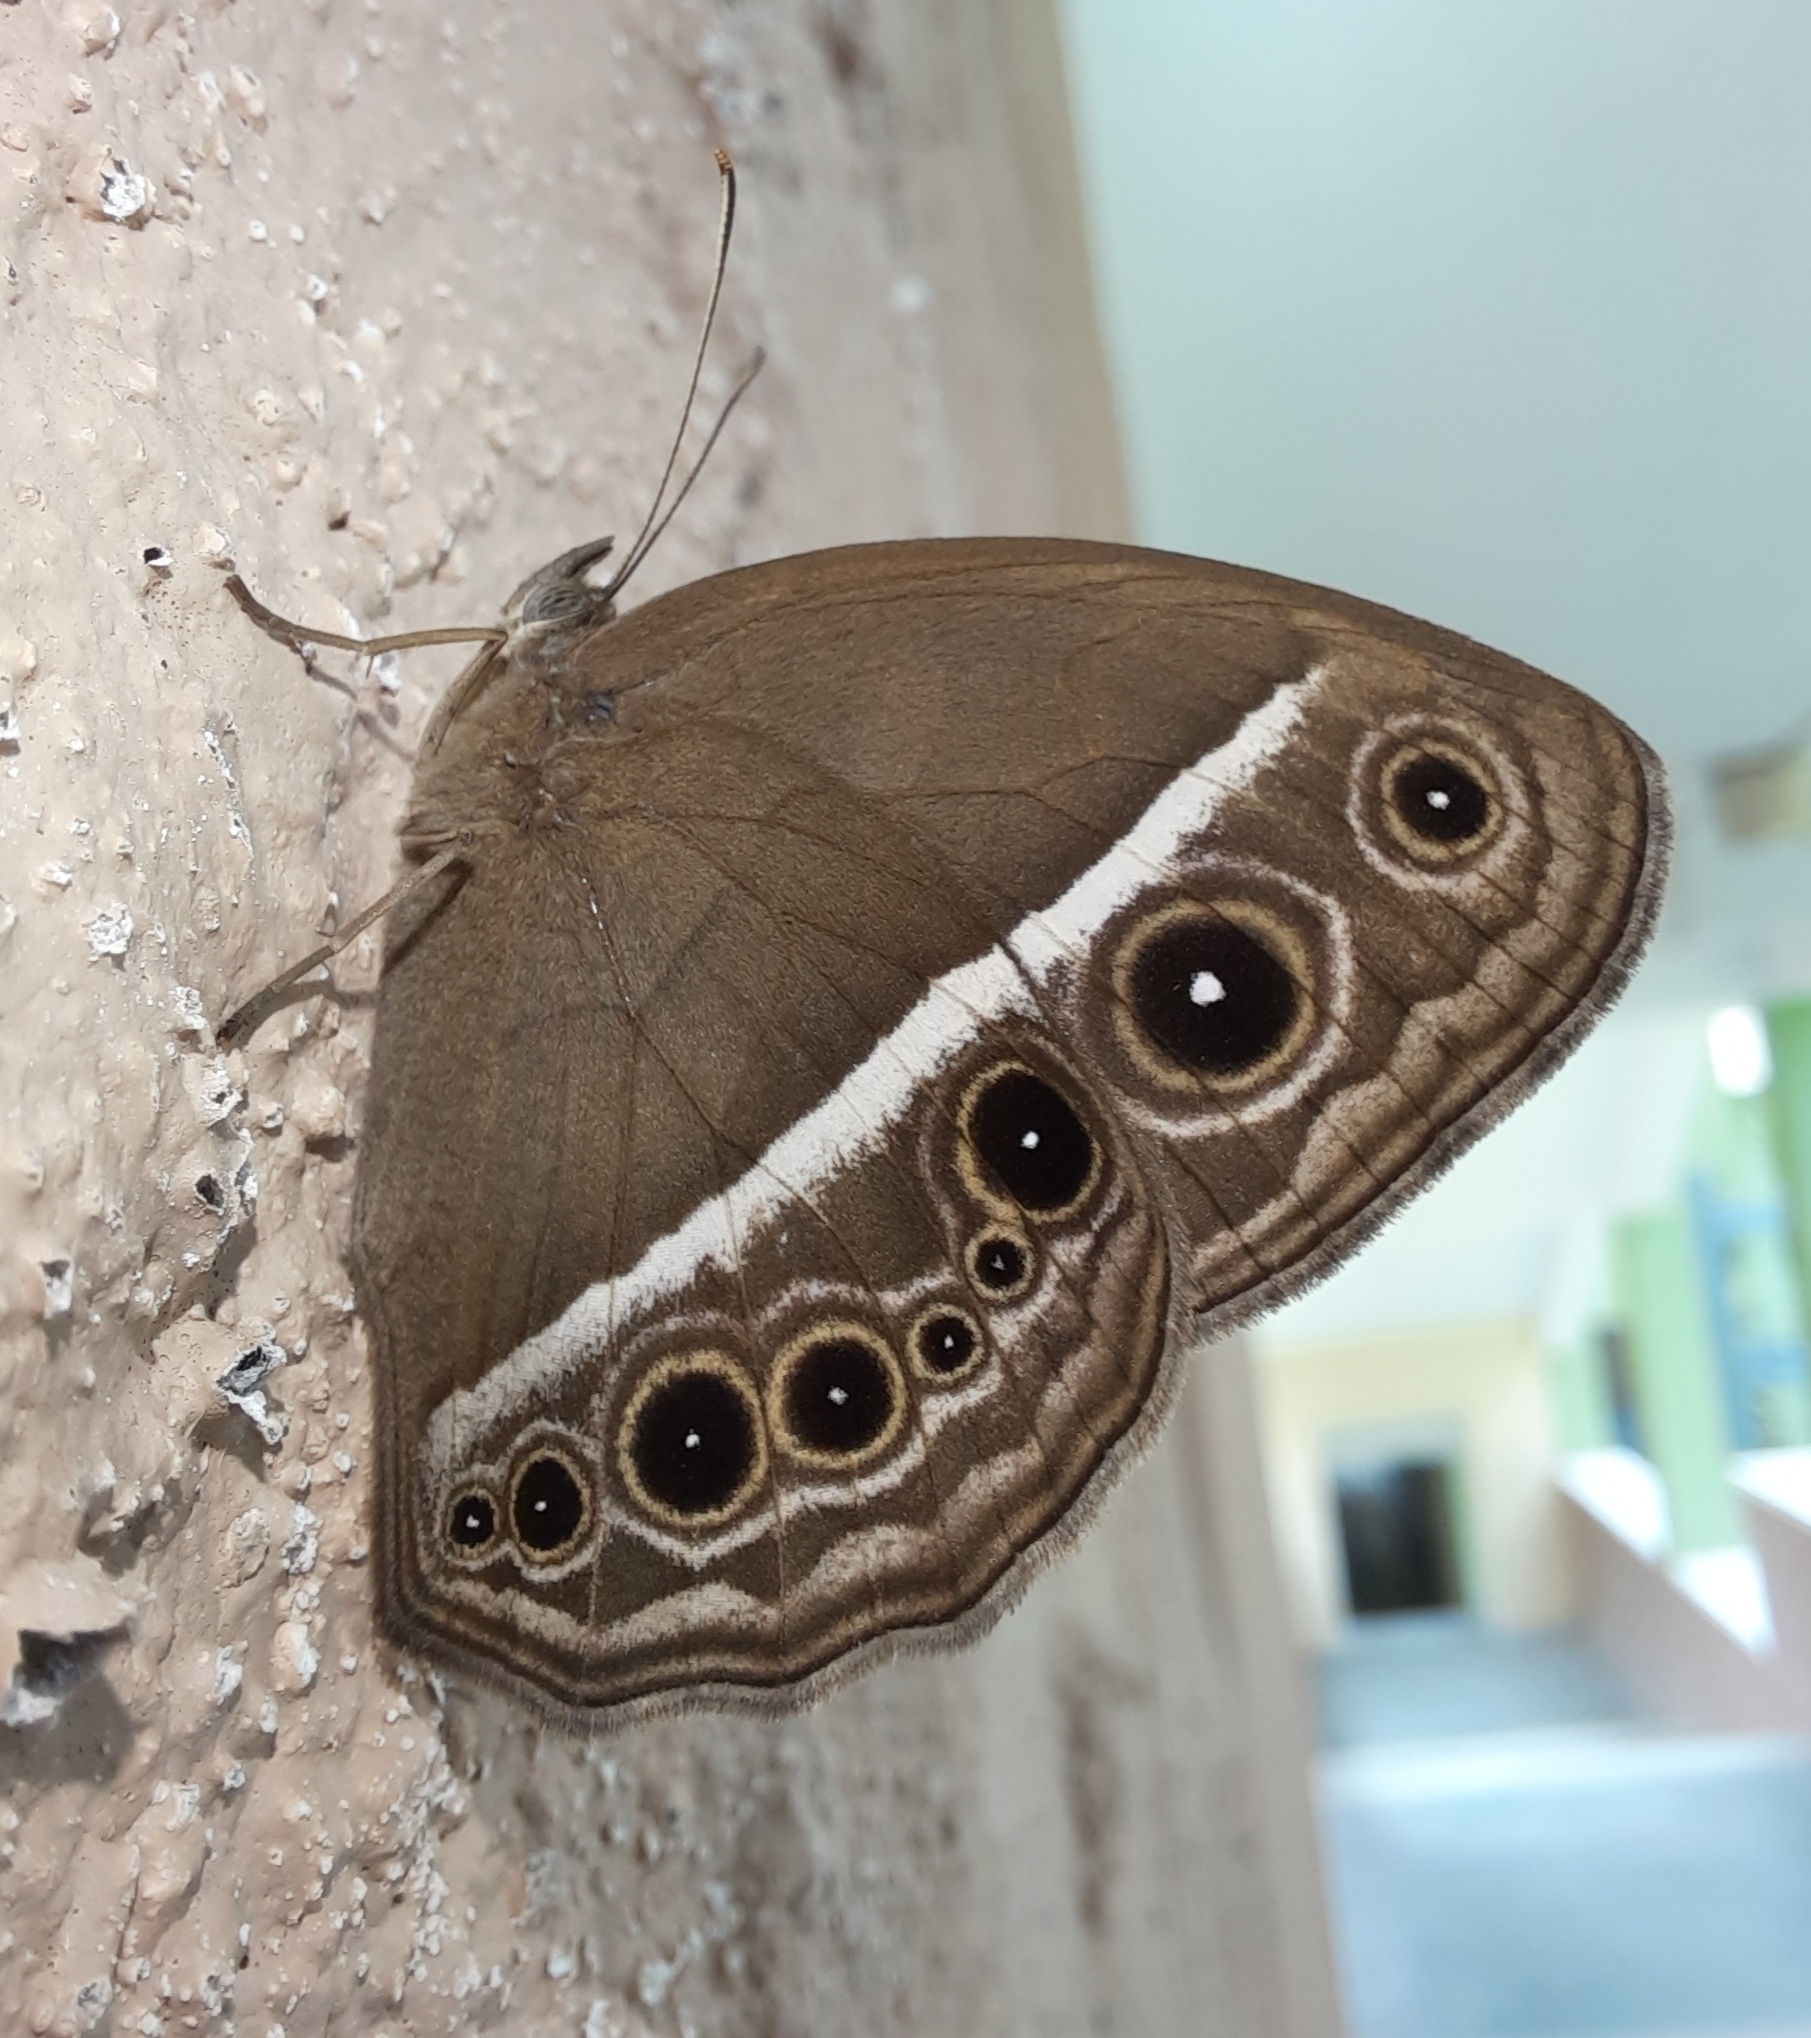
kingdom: Animalia
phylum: Arthropoda
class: Insecta
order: Lepidoptera
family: Nymphalidae
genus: Mycalesis
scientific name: Mycalesis mineus
